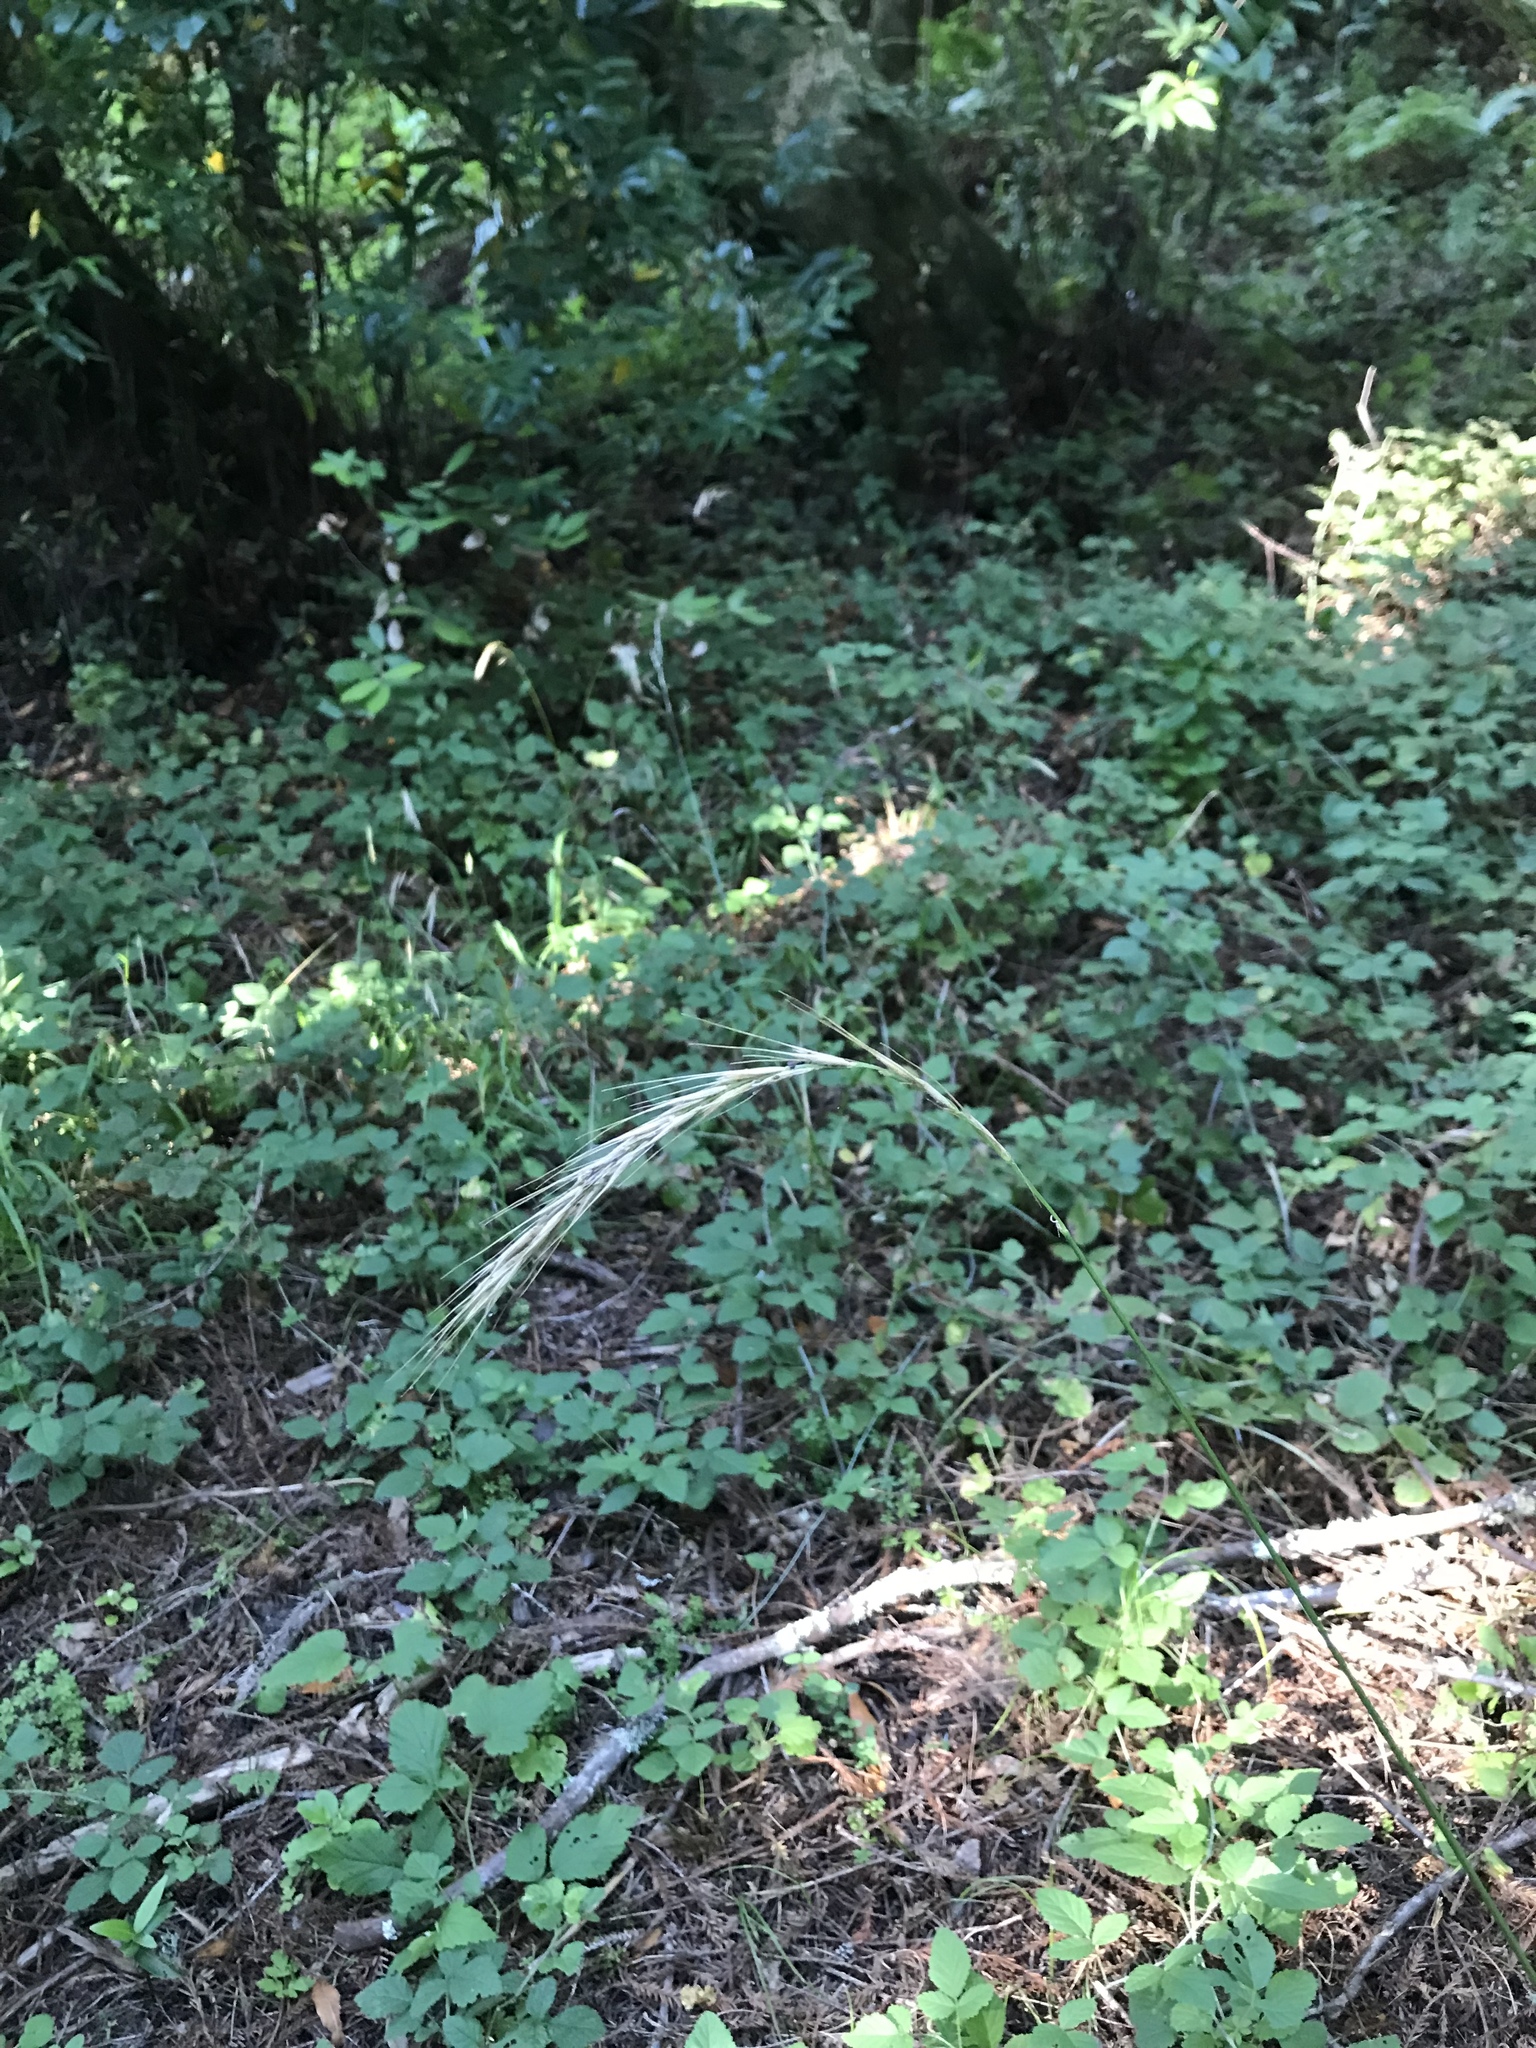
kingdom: Plantae
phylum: Tracheophyta
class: Liliopsida
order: Poales
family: Poaceae
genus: Elymus
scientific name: Elymus californicus
